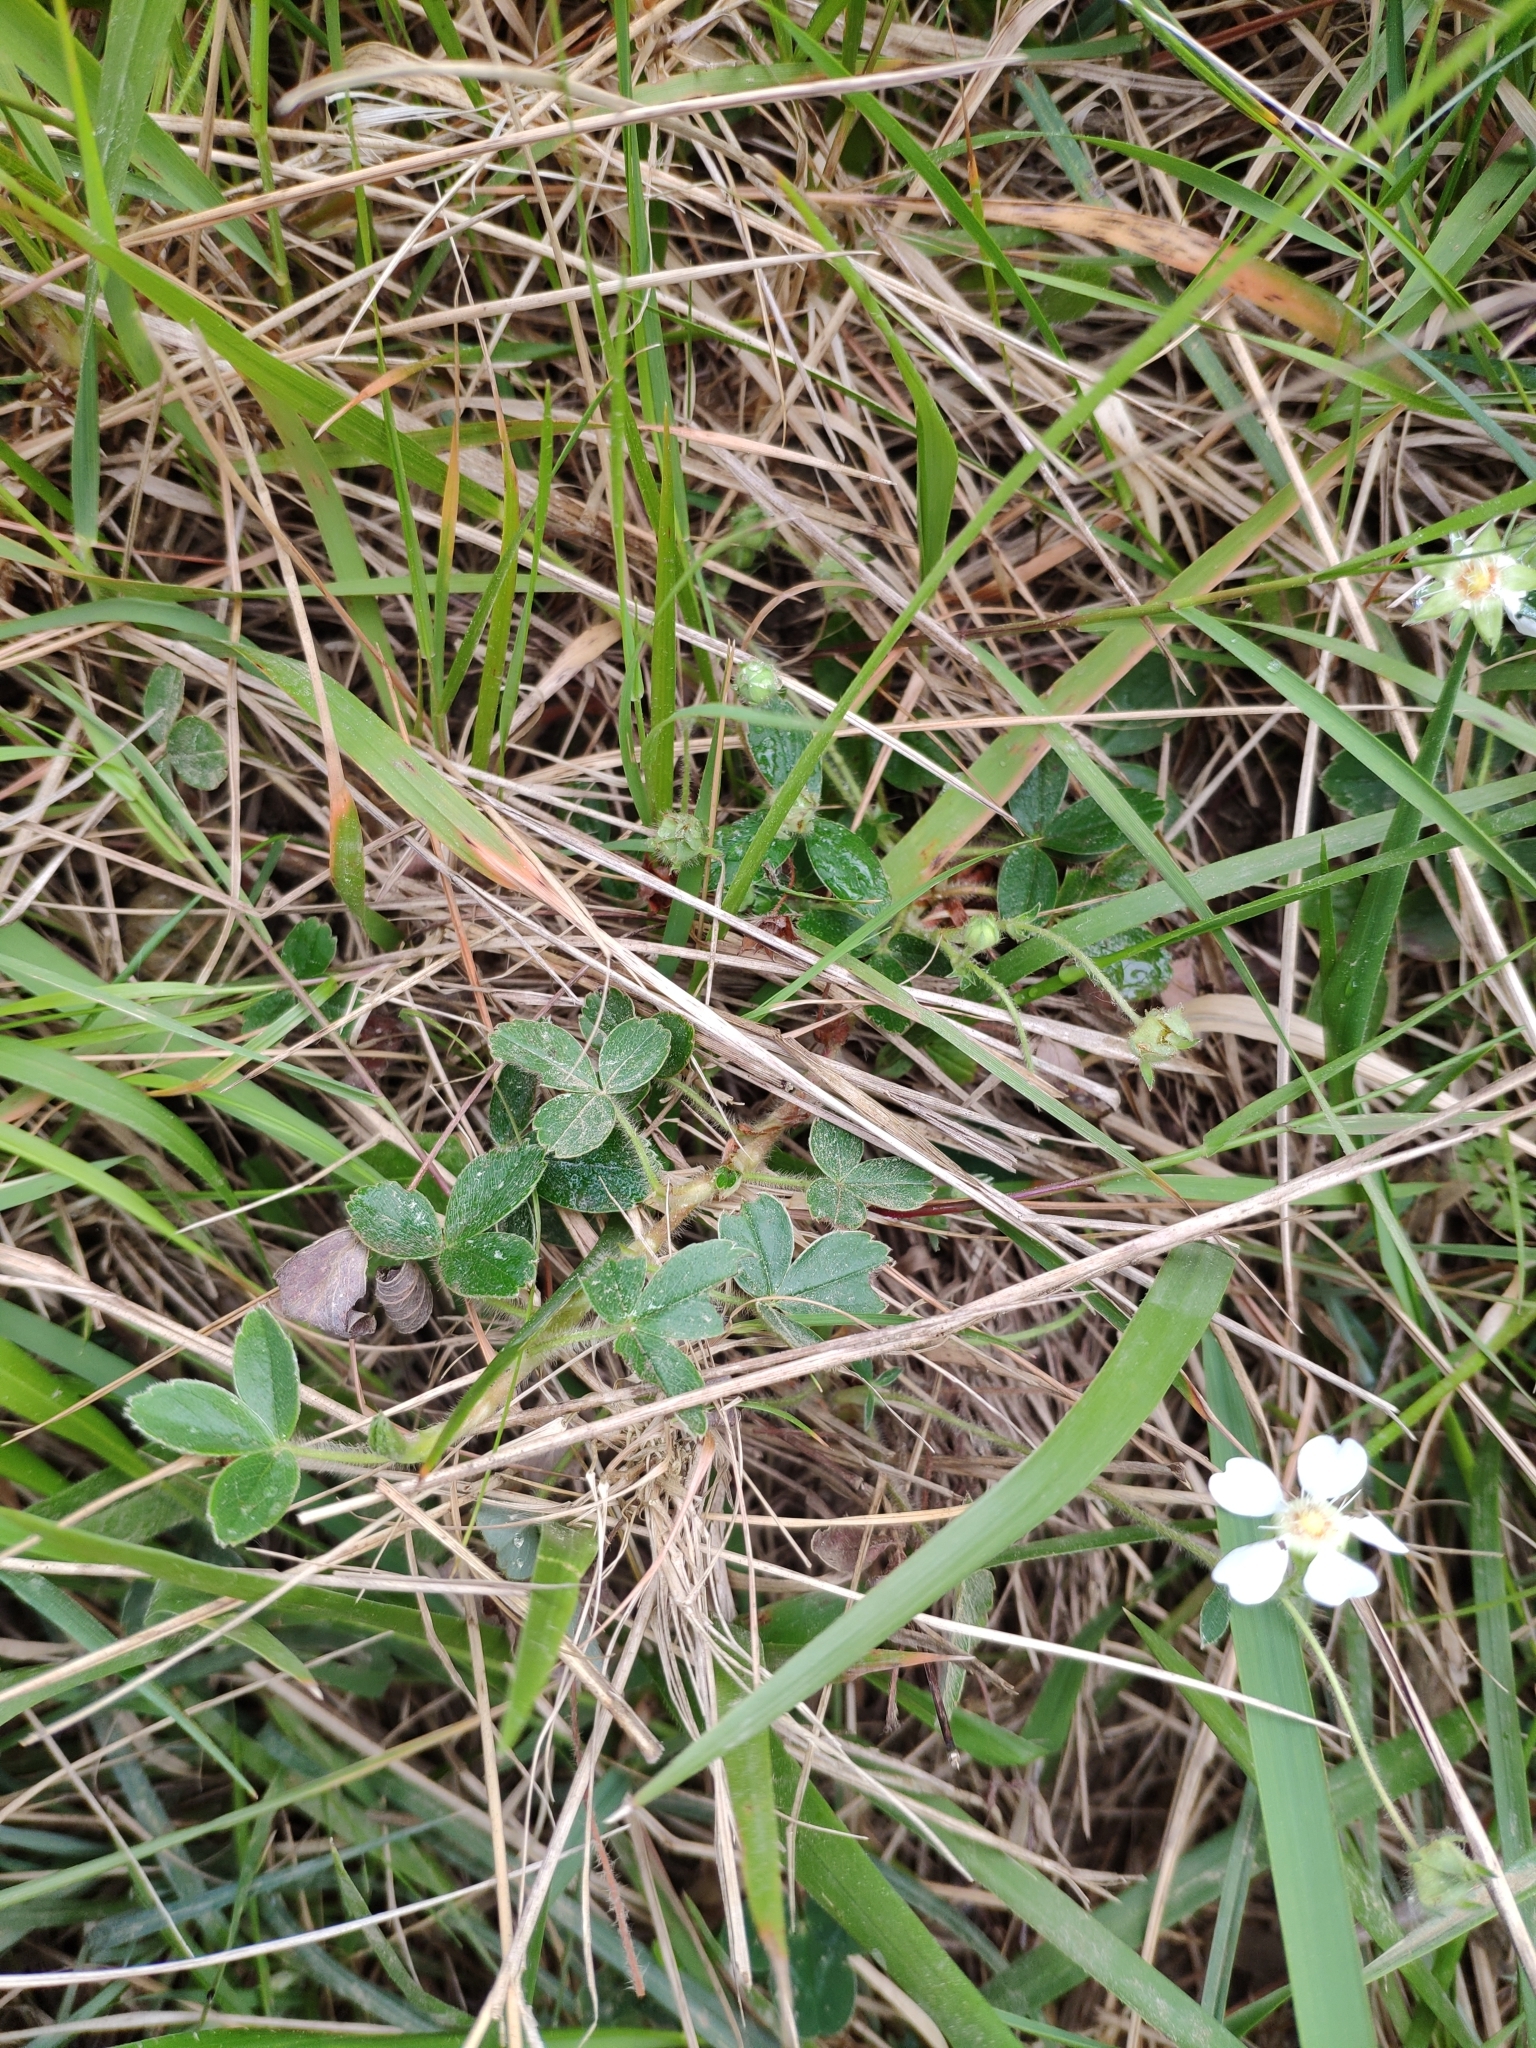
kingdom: Plantae
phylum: Tracheophyta
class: Magnoliopsida
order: Rosales
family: Rosaceae
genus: Potentilla
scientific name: Potentilla montana
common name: Mountain cinquefoil
